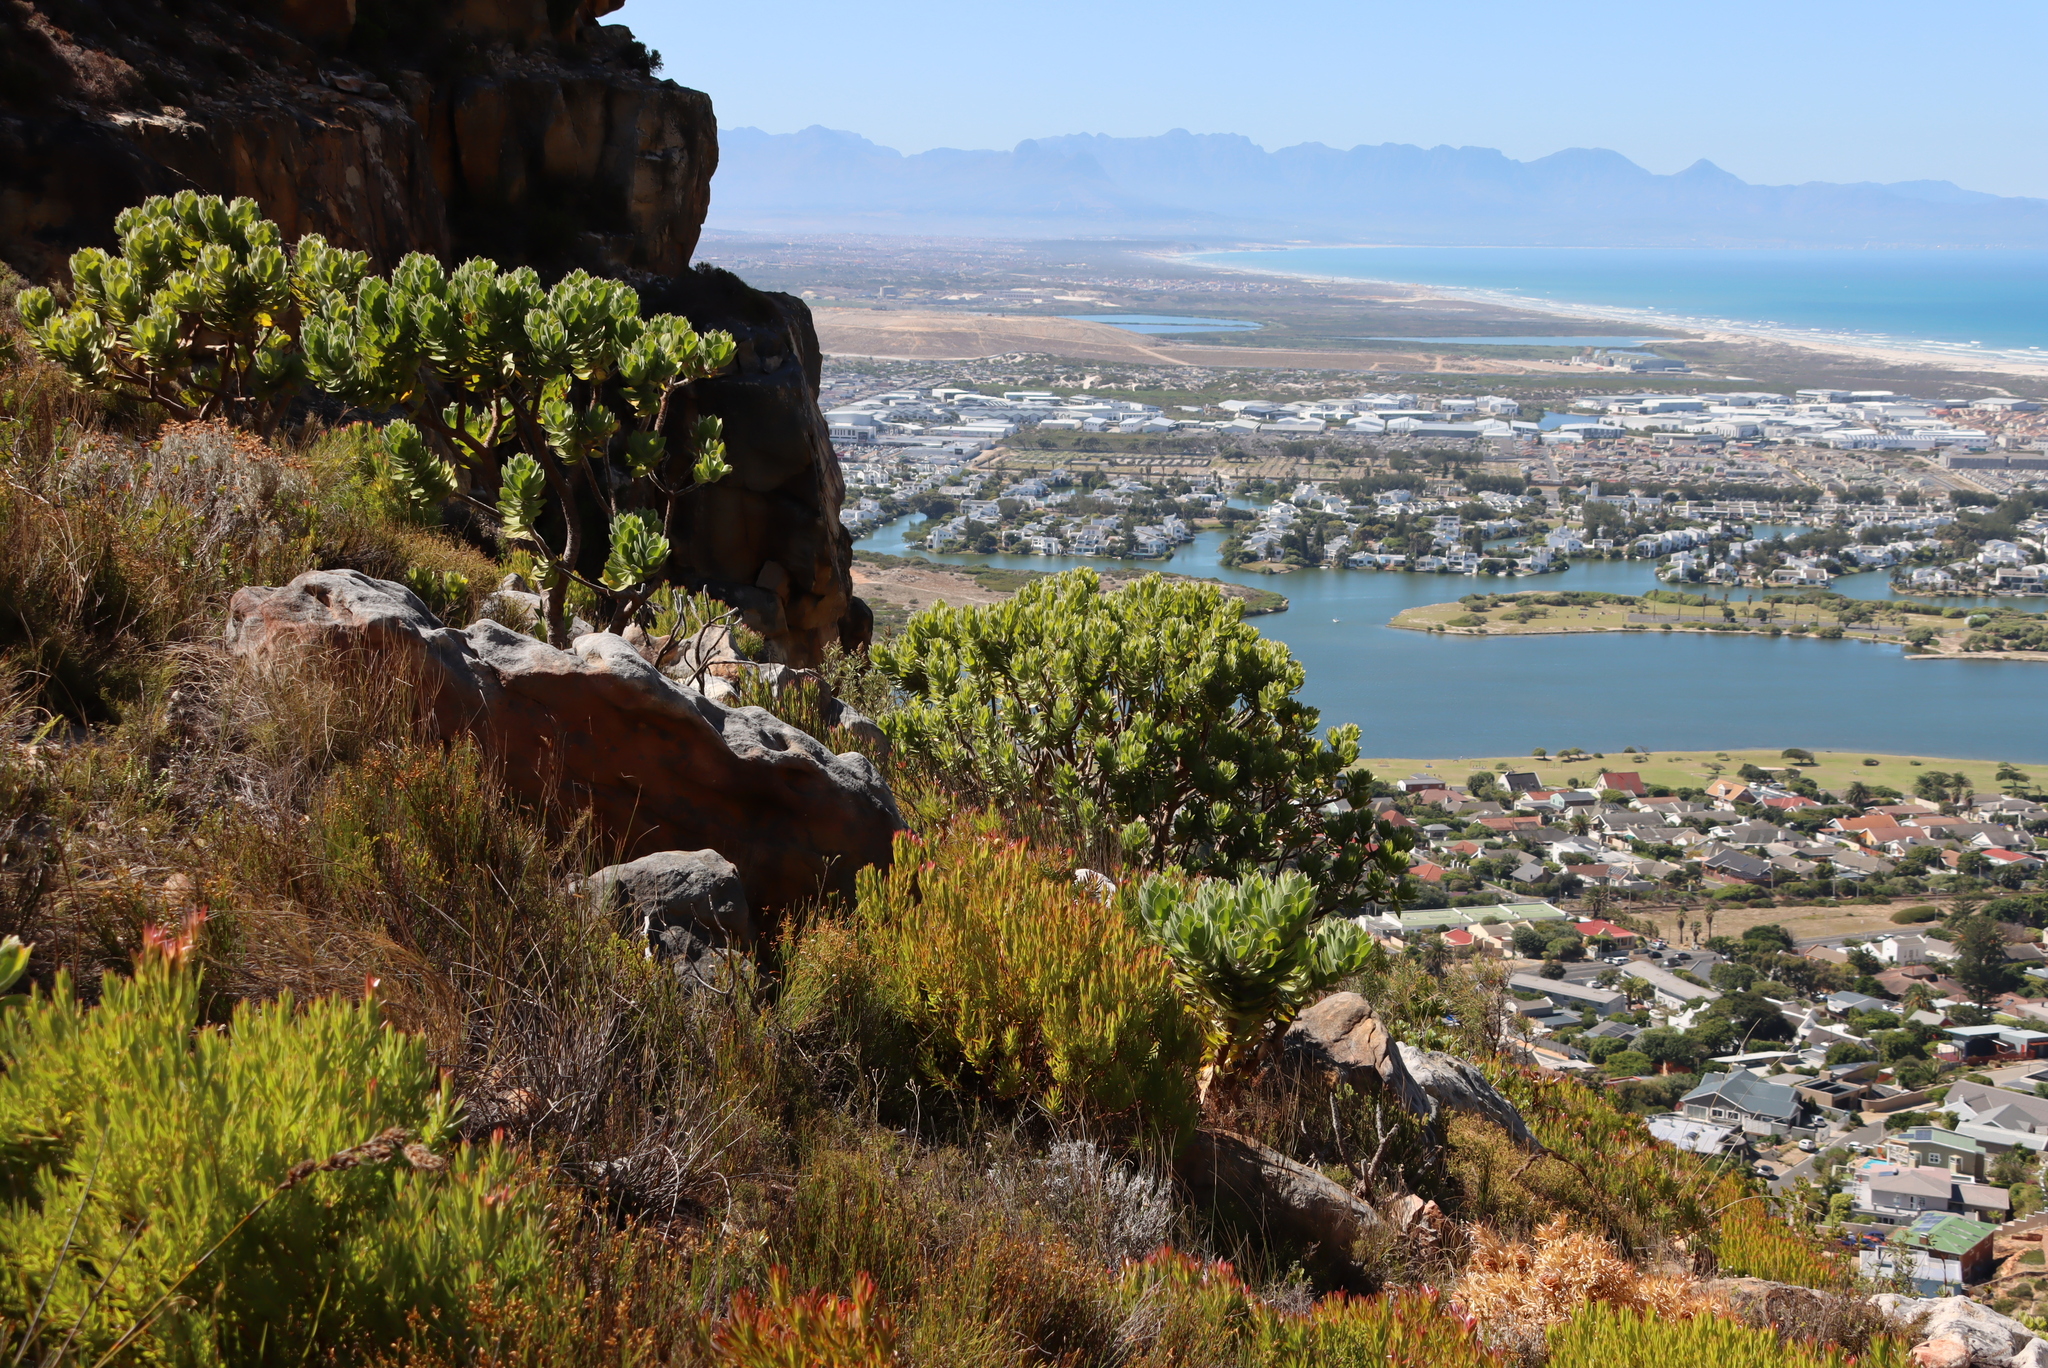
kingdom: Plantae
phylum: Tracheophyta
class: Magnoliopsida
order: Proteales
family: Proteaceae
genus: Leucospermum
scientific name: Leucospermum conocarpodendron
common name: Tree pincushion
